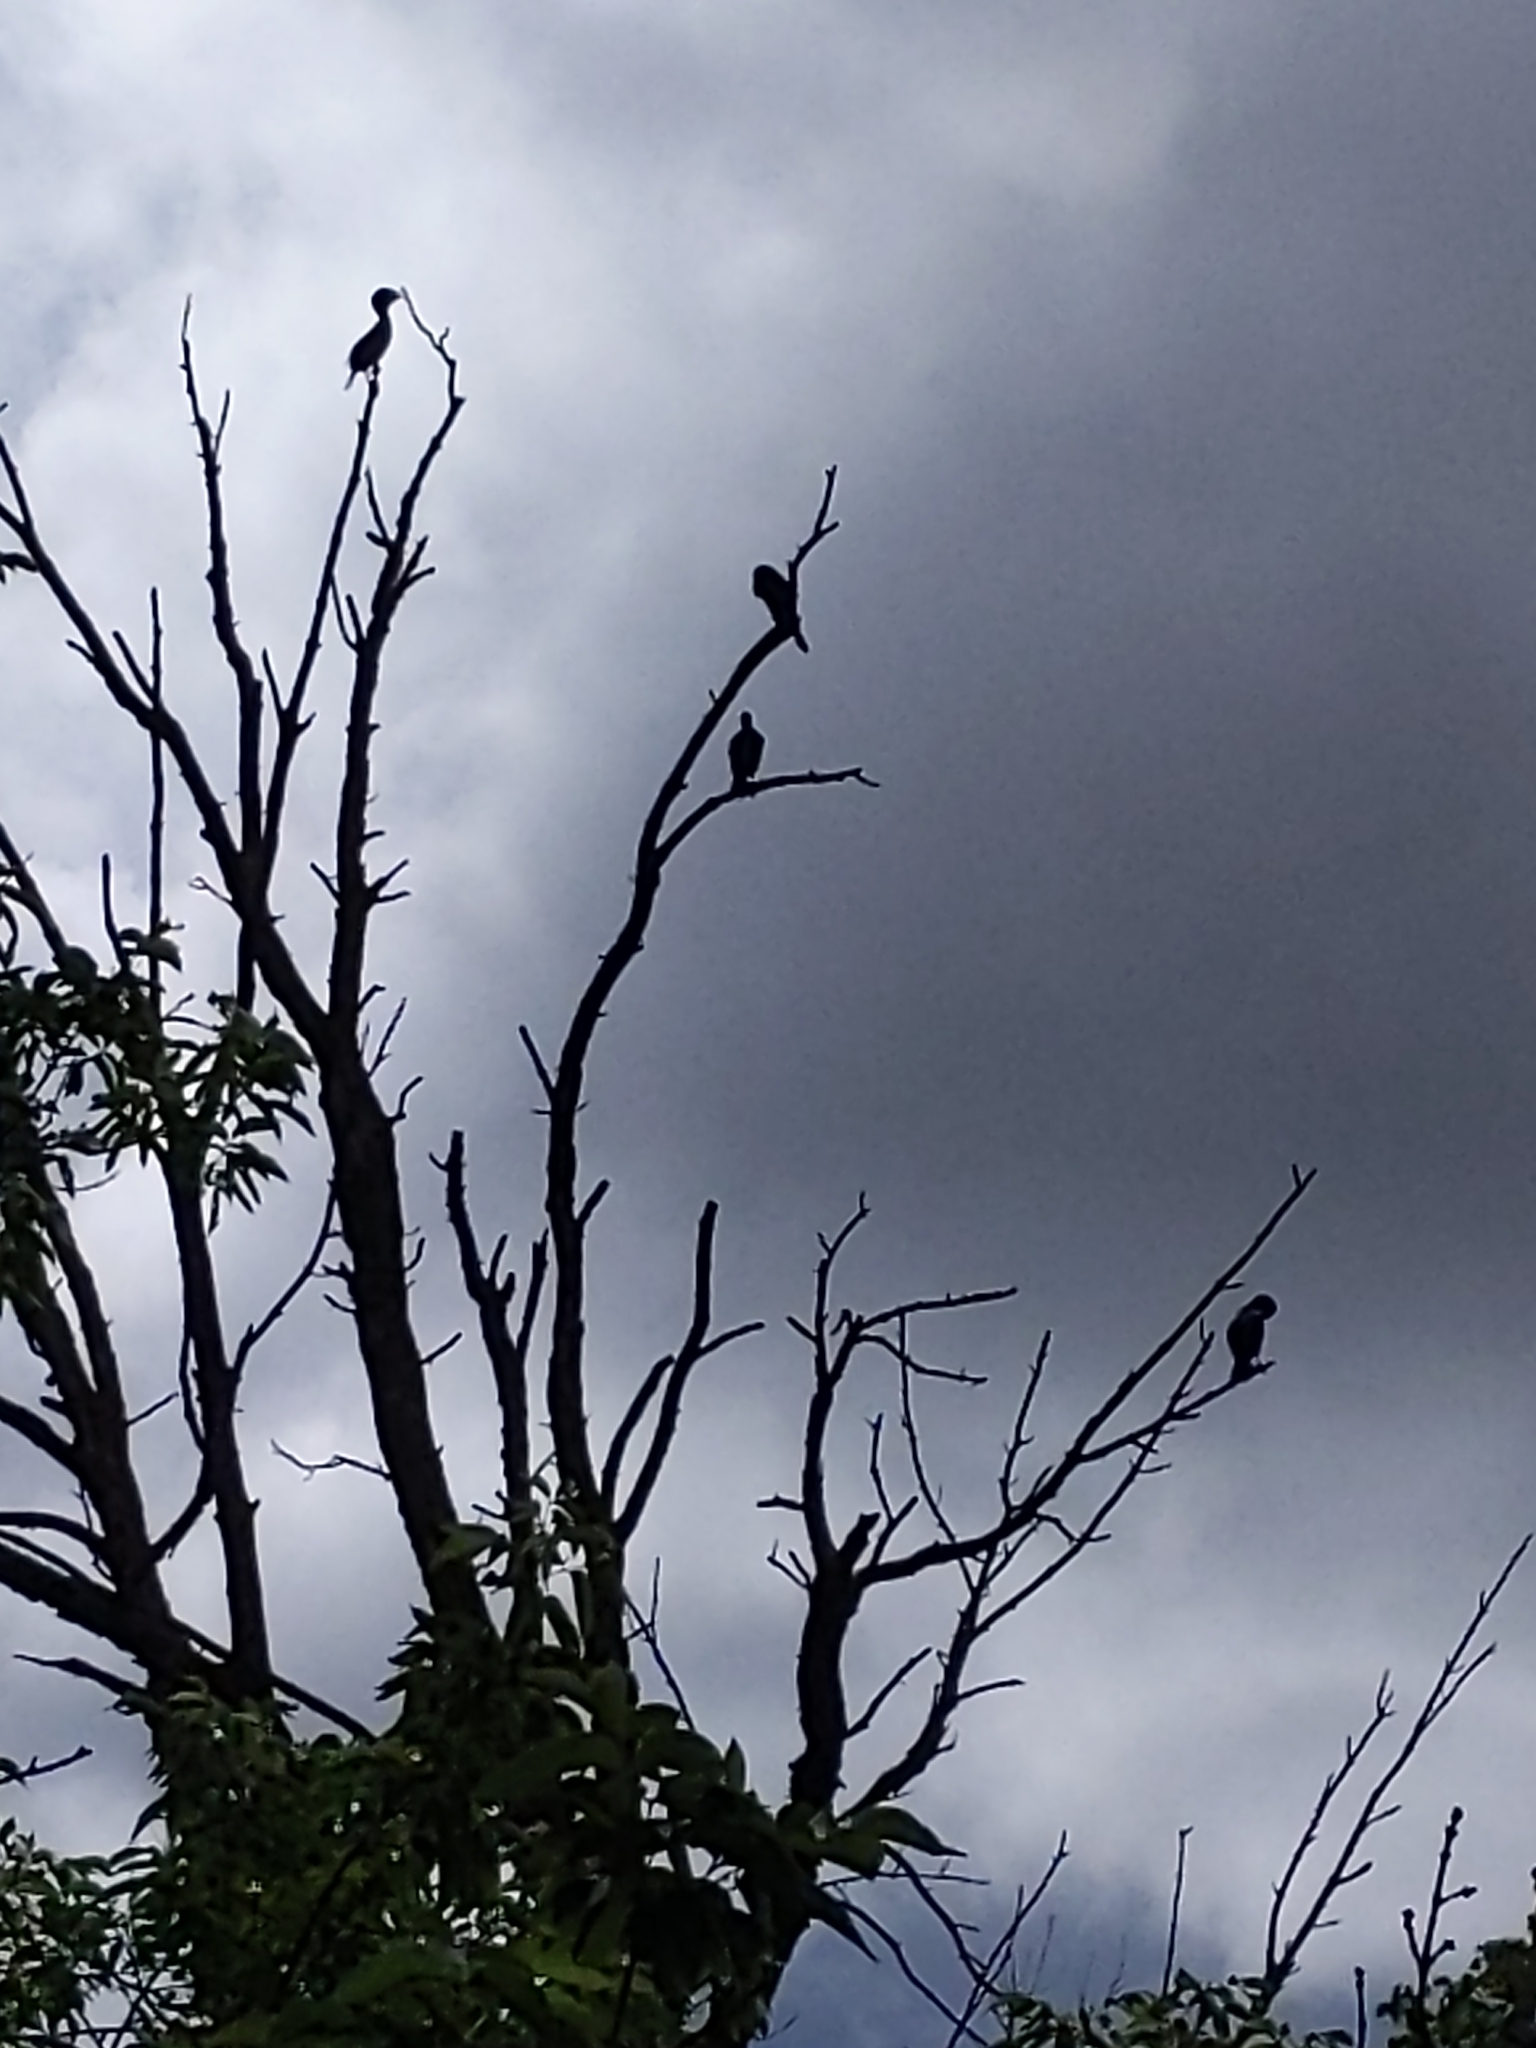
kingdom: Animalia
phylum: Chordata
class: Aves
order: Suliformes
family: Phalacrocoracidae
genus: Phalacrocorax
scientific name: Phalacrocorax auritus
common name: Double-crested cormorant
